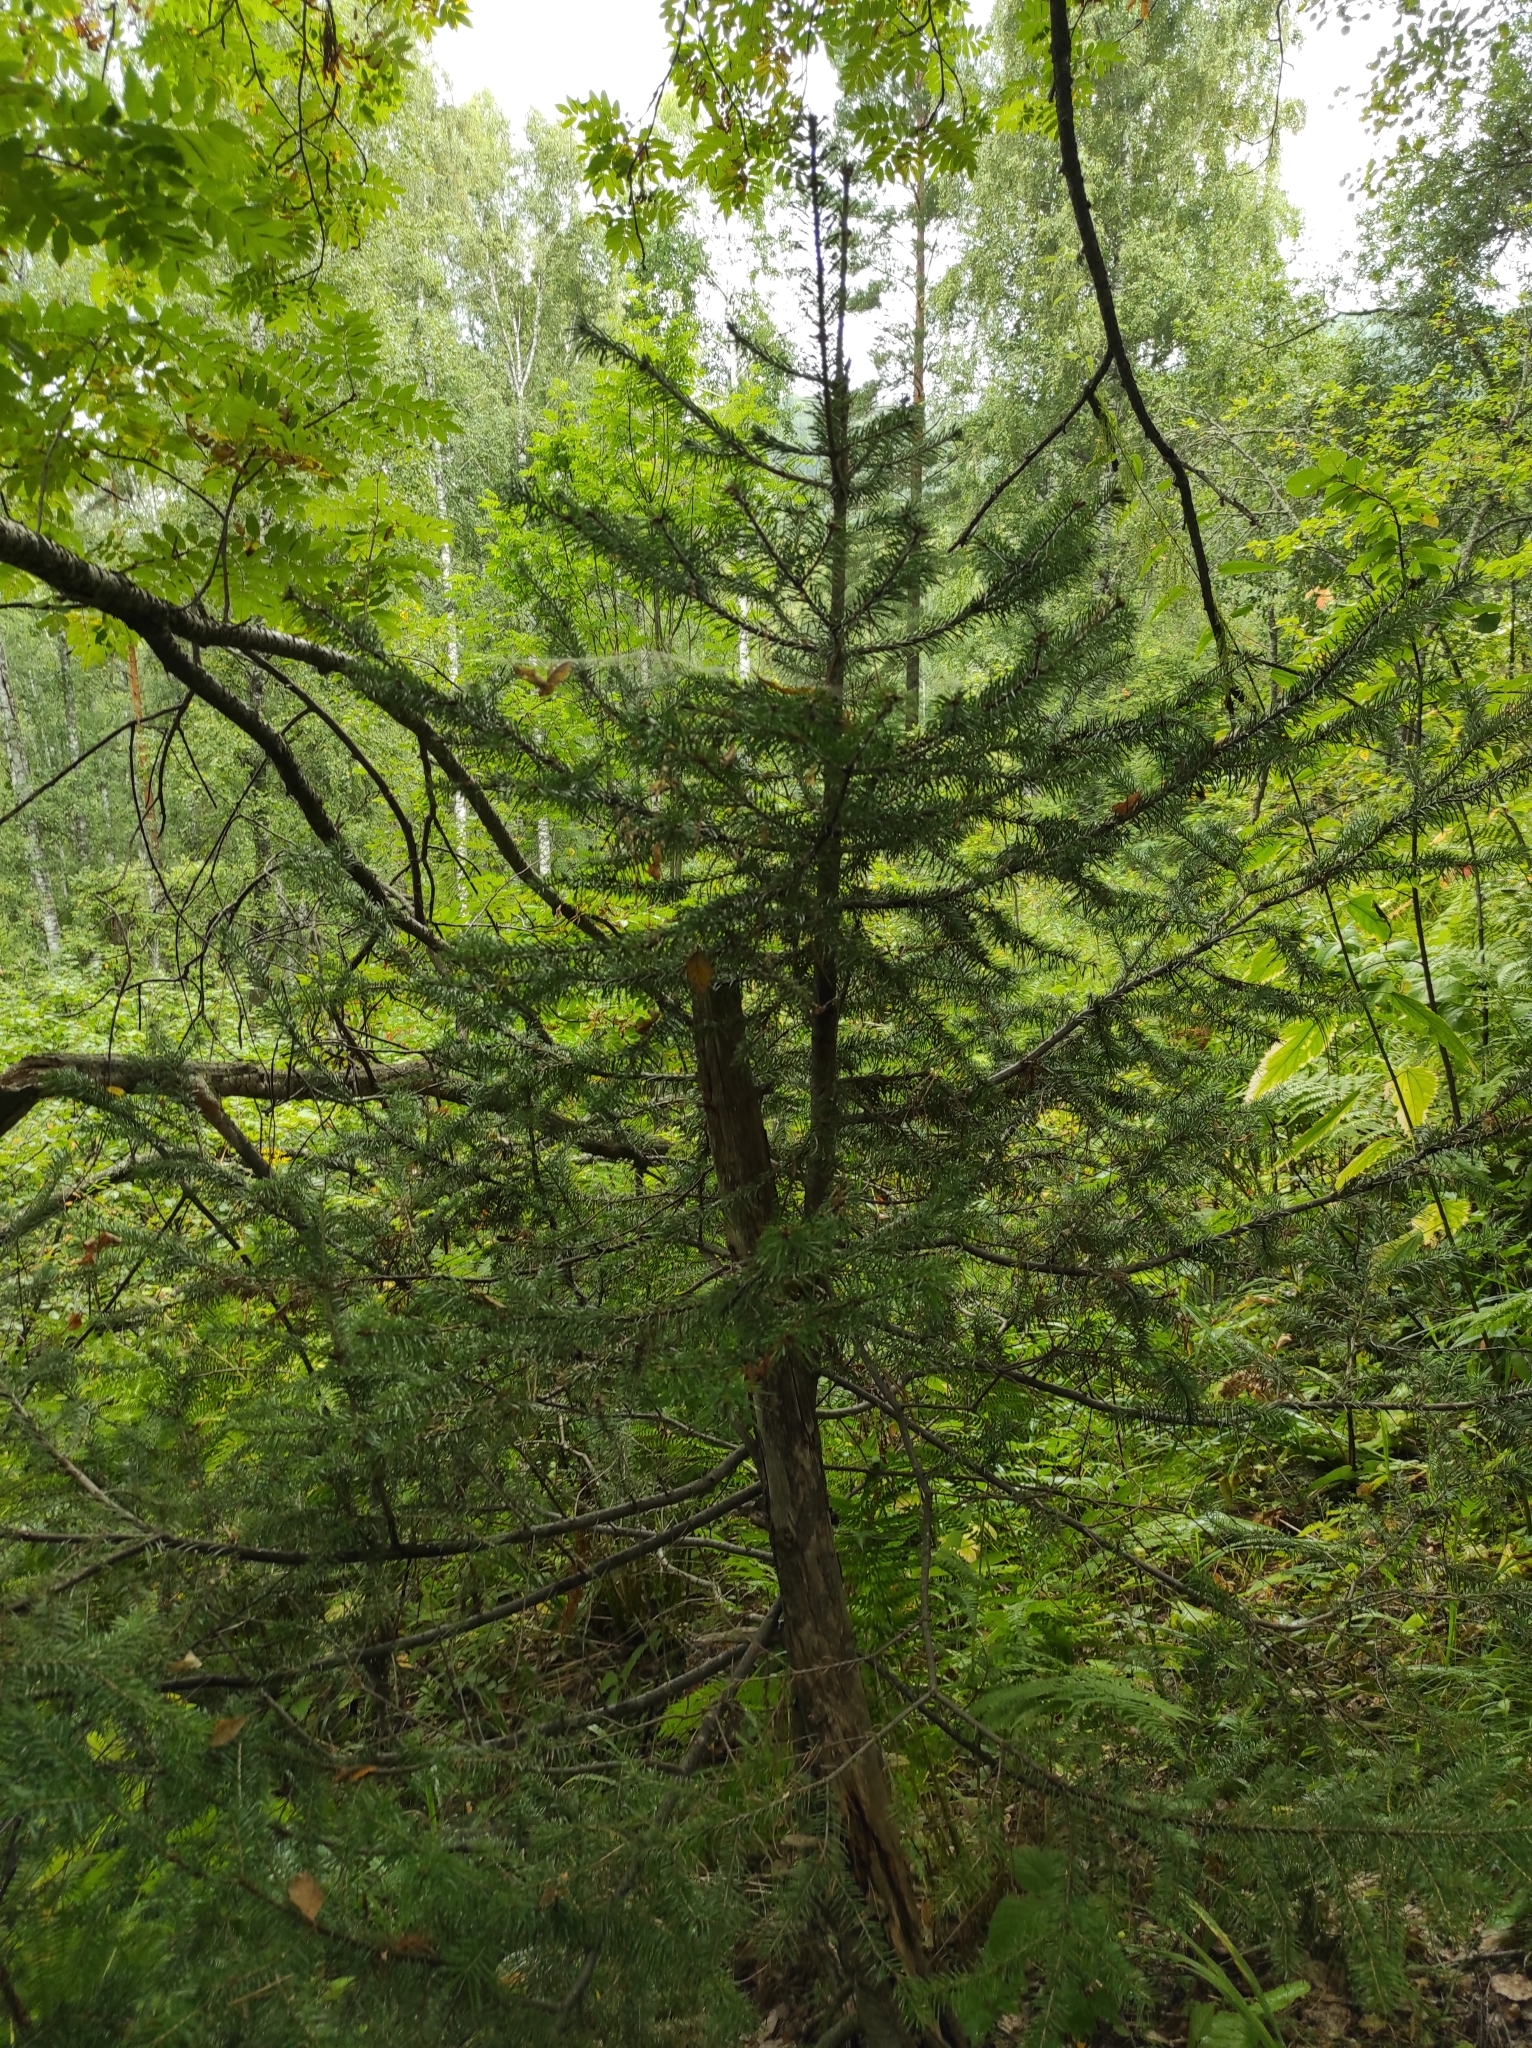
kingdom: Plantae
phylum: Tracheophyta
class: Pinopsida
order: Pinales
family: Pinaceae
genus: Abies
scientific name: Abies sibirica
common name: Siberian fir
